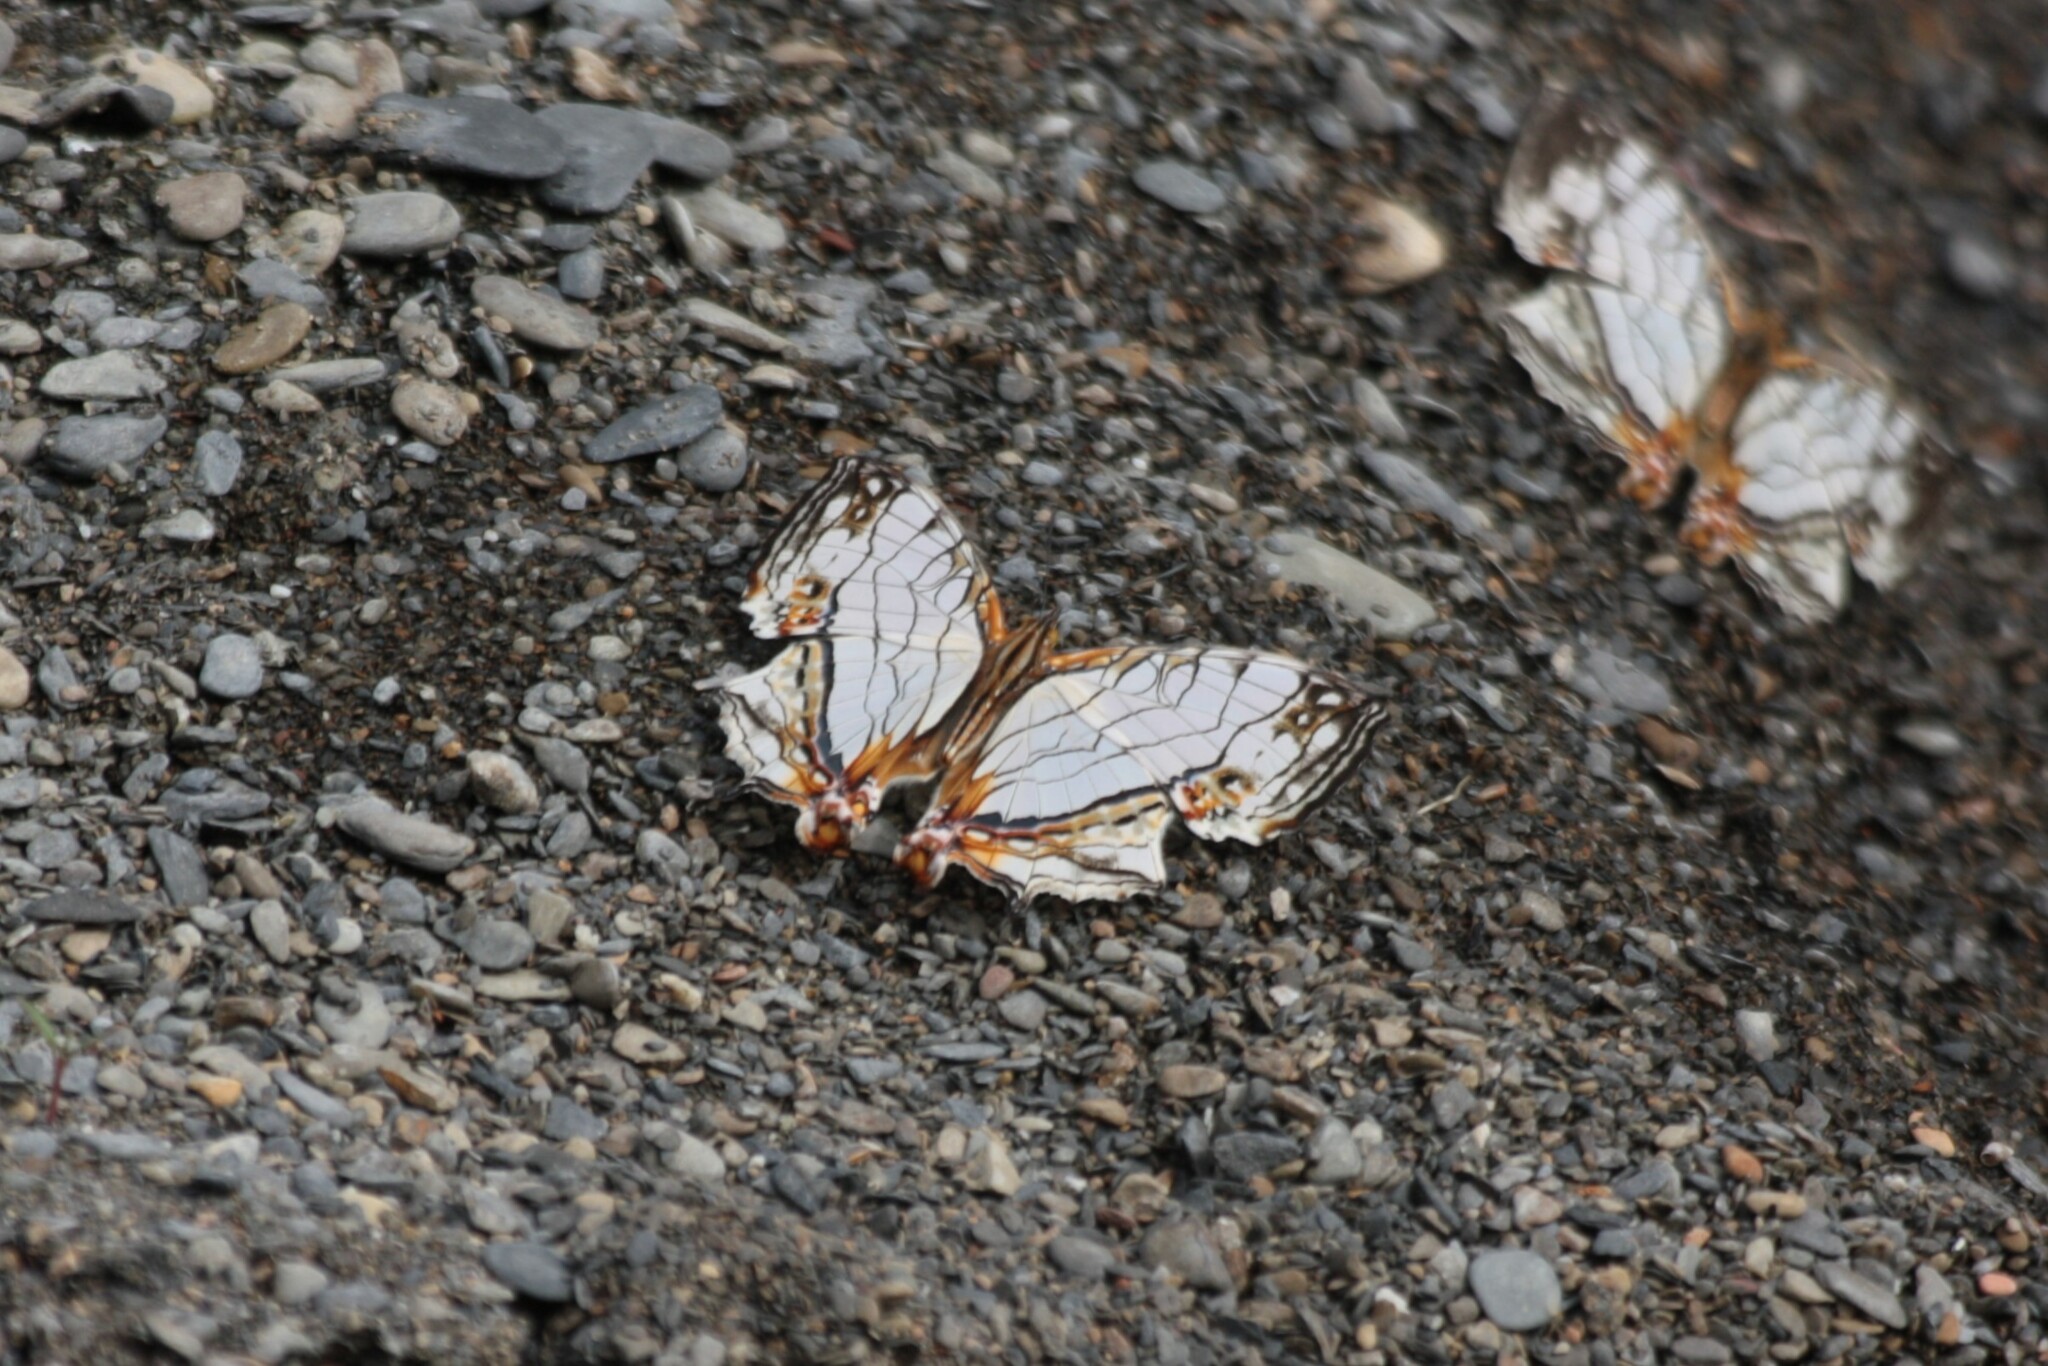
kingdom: Animalia
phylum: Arthropoda
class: Insecta
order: Lepidoptera
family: Nymphalidae
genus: Cyrestis
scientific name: Cyrestis thyodamas
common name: Common mapwing
